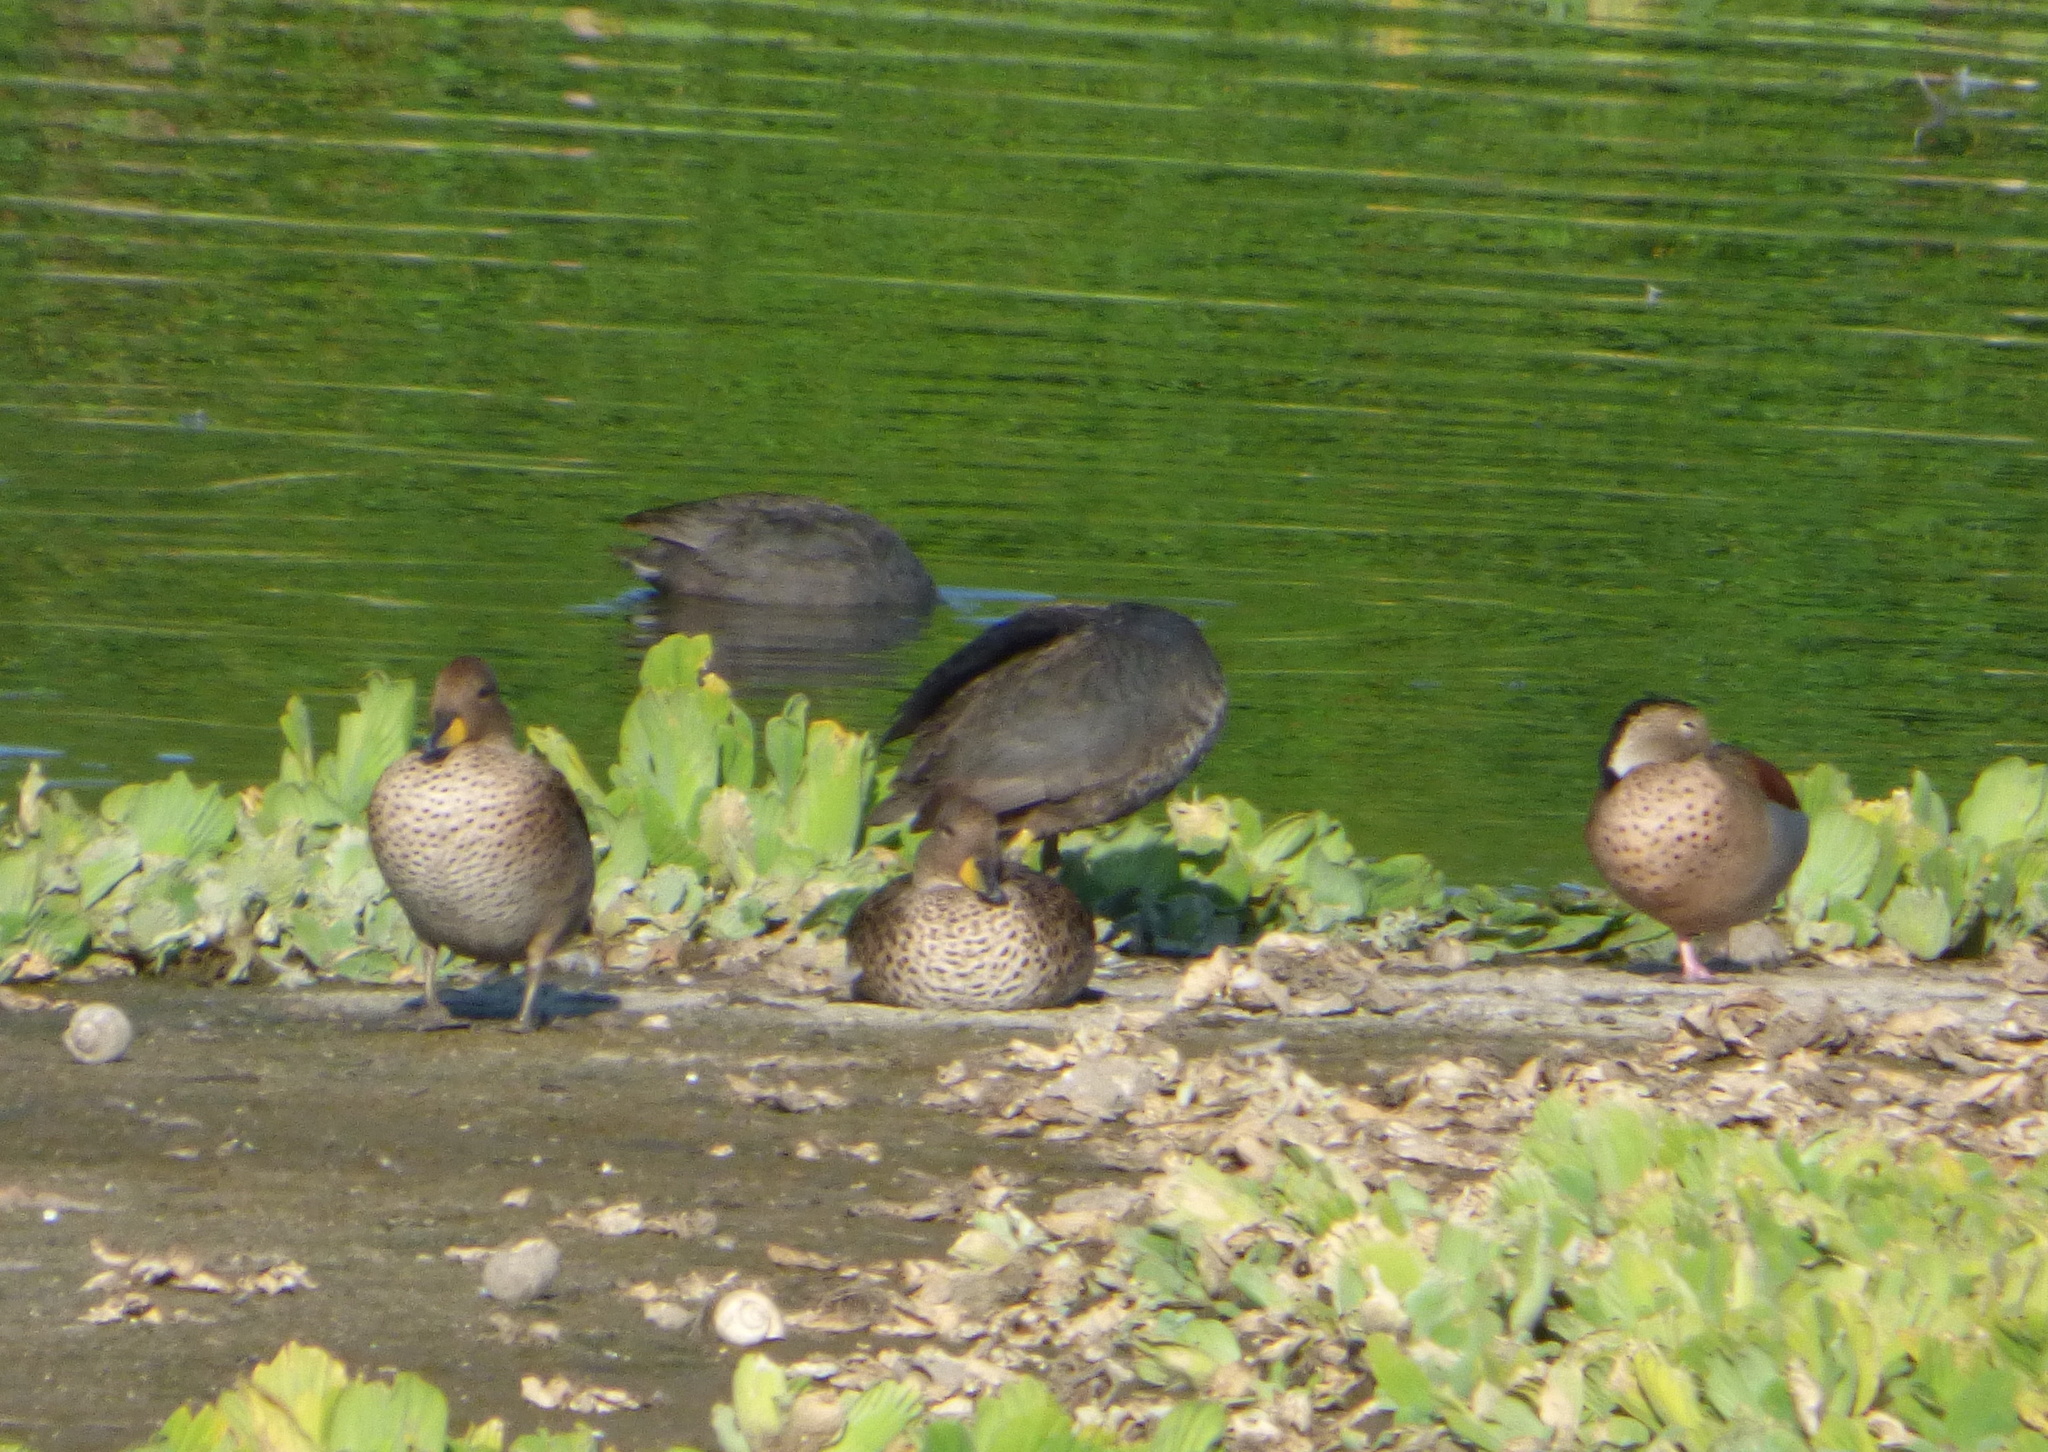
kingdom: Animalia
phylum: Chordata
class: Aves
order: Anseriformes
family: Anatidae
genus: Anas
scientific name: Anas flavirostris
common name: Yellow-billed teal
